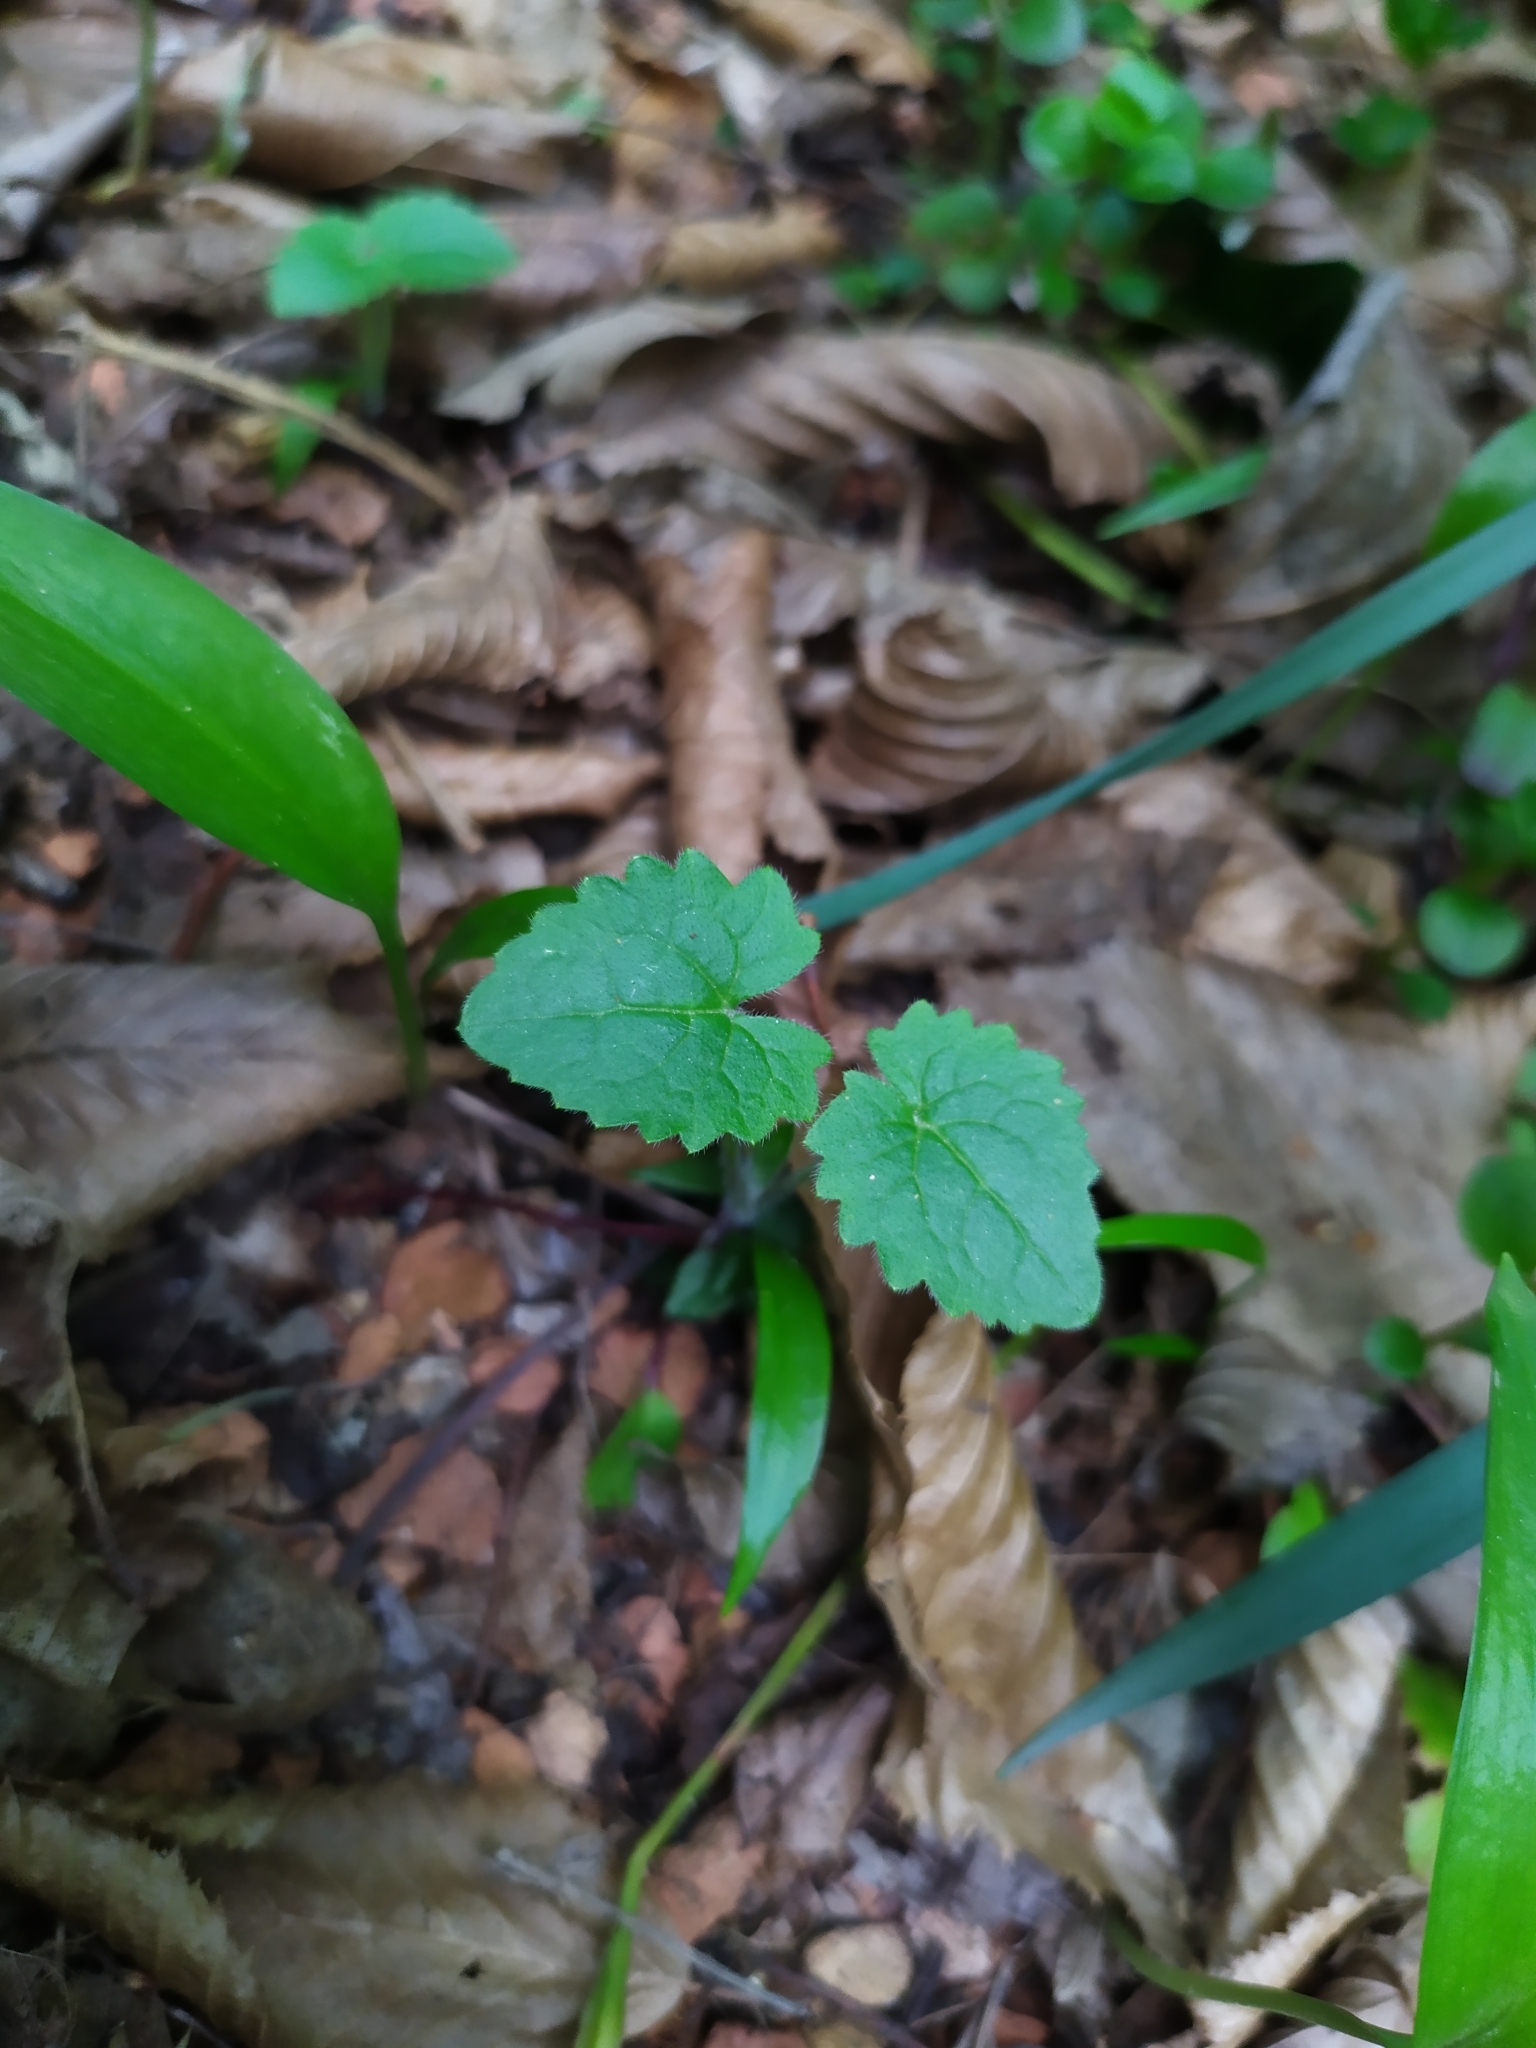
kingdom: Plantae
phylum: Tracheophyta
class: Magnoliopsida
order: Brassicales
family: Brassicaceae
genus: Lunaria
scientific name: Lunaria annua
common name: Honesty
